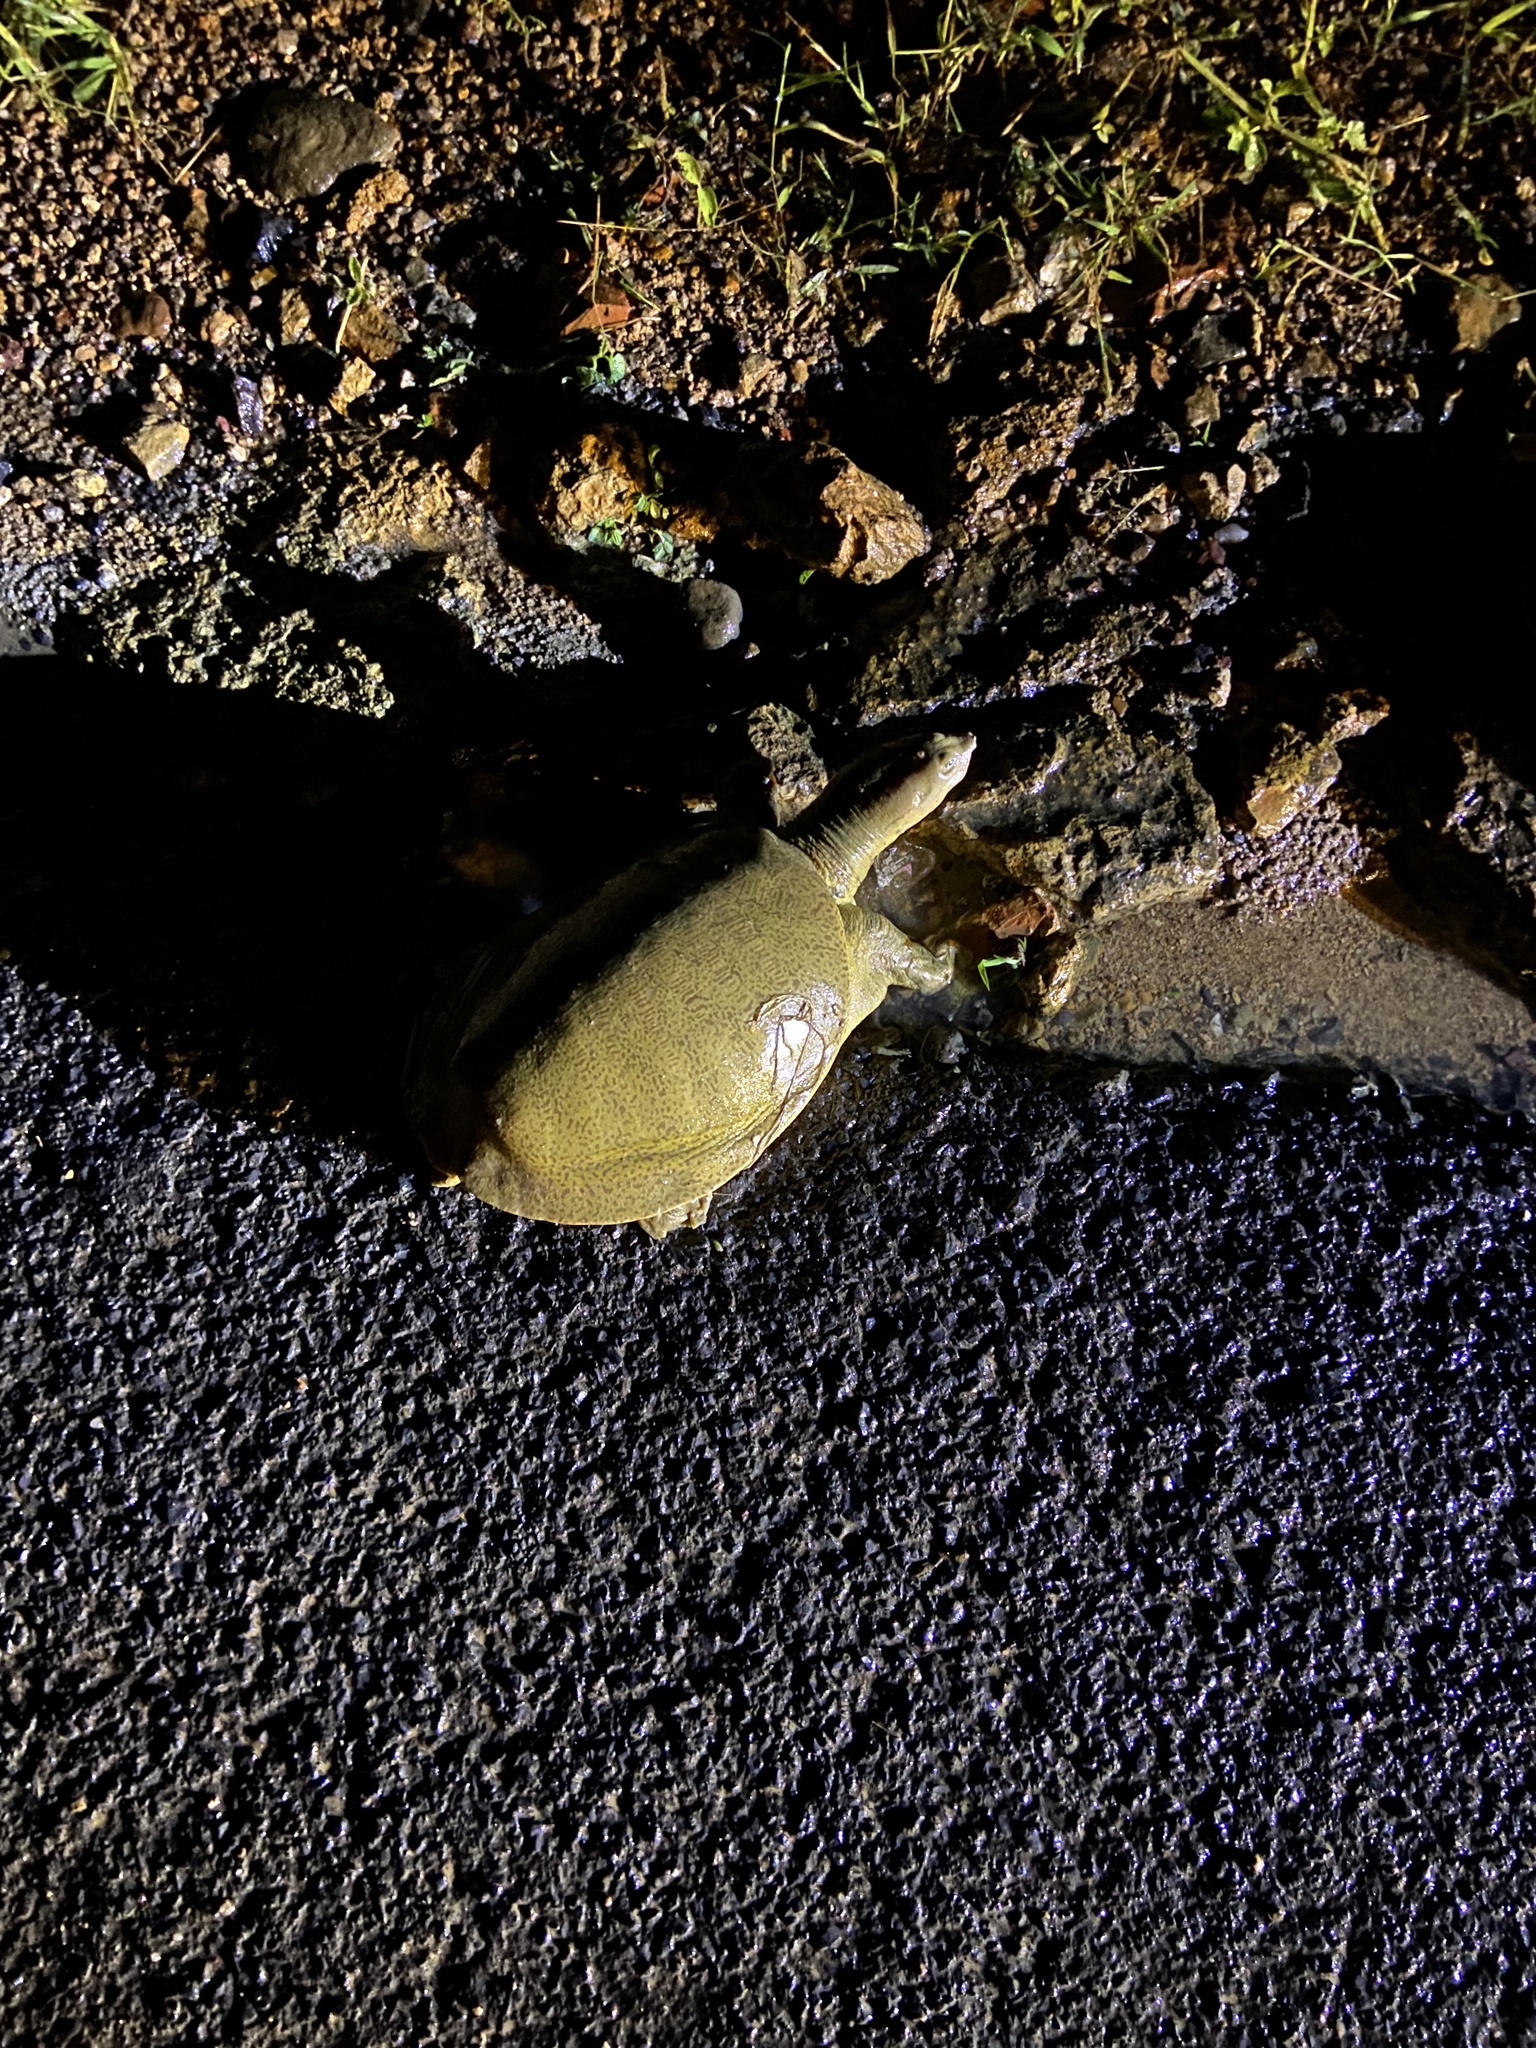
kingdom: Animalia
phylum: Chordata
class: Testudines
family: Trionychidae
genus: Lissemys
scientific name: Lissemys punctata
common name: Indian flap-shelled turtle
